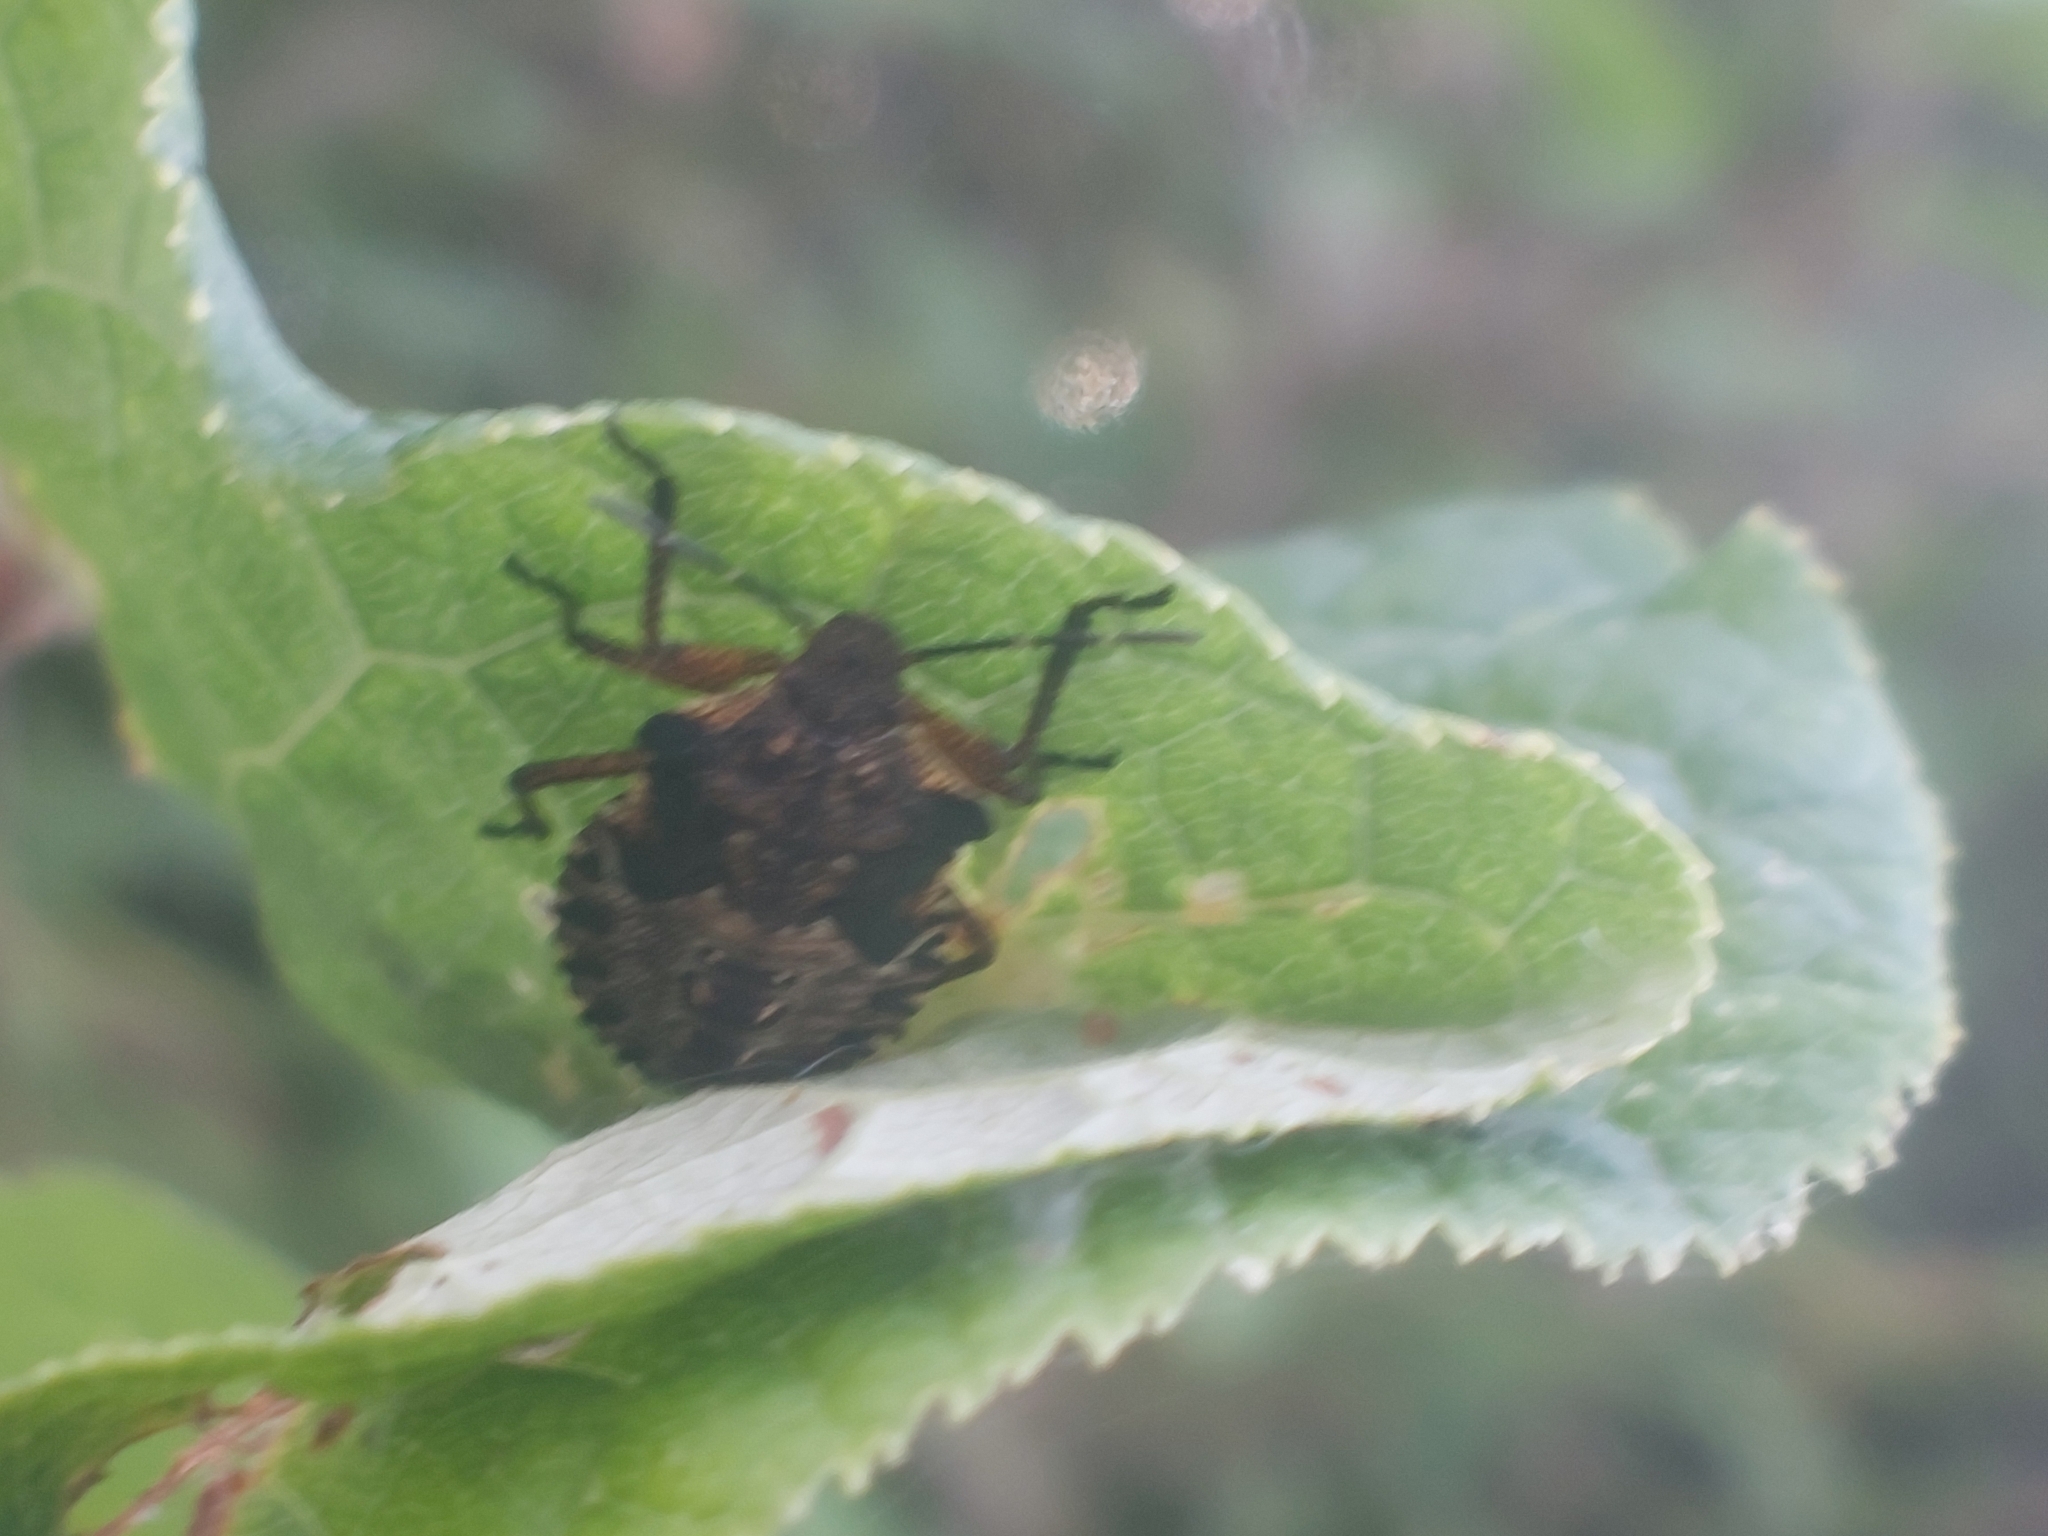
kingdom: Animalia
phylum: Arthropoda
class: Insecta
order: Hemiptera
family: Pentatomidae
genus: Pentatoma
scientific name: Pentatoma rufipes
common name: Forest bug
